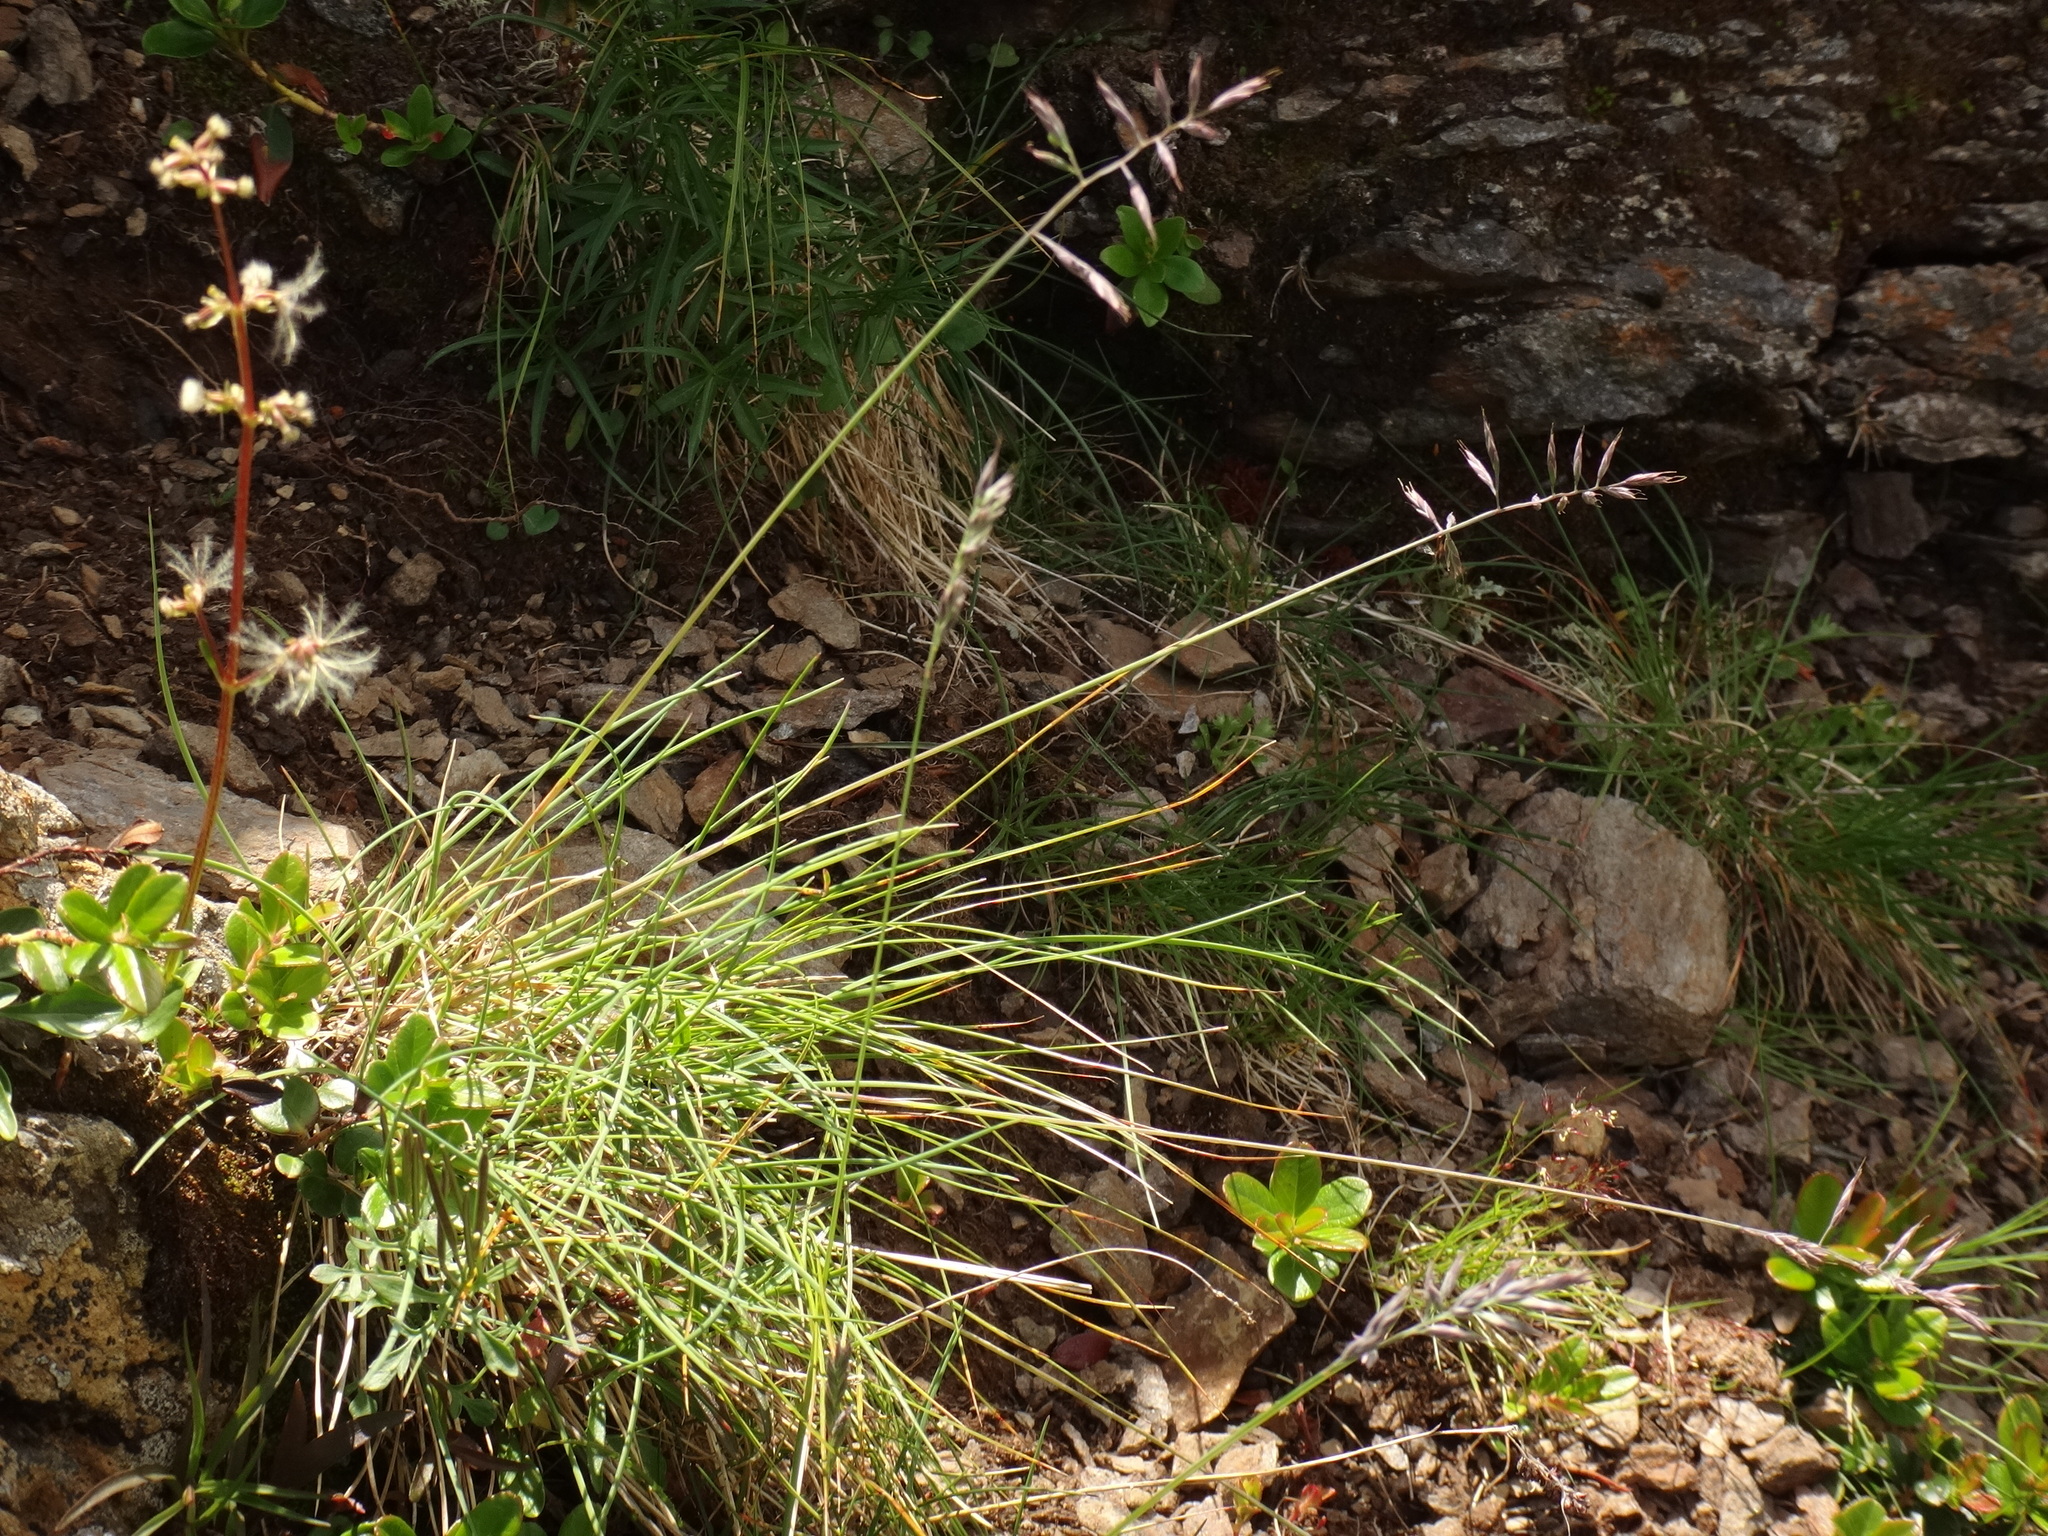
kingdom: Plantae
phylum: Tracheophyta
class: Liliopsida
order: Poales
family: Poaceae
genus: Festuca
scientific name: Festuca pseudodura
